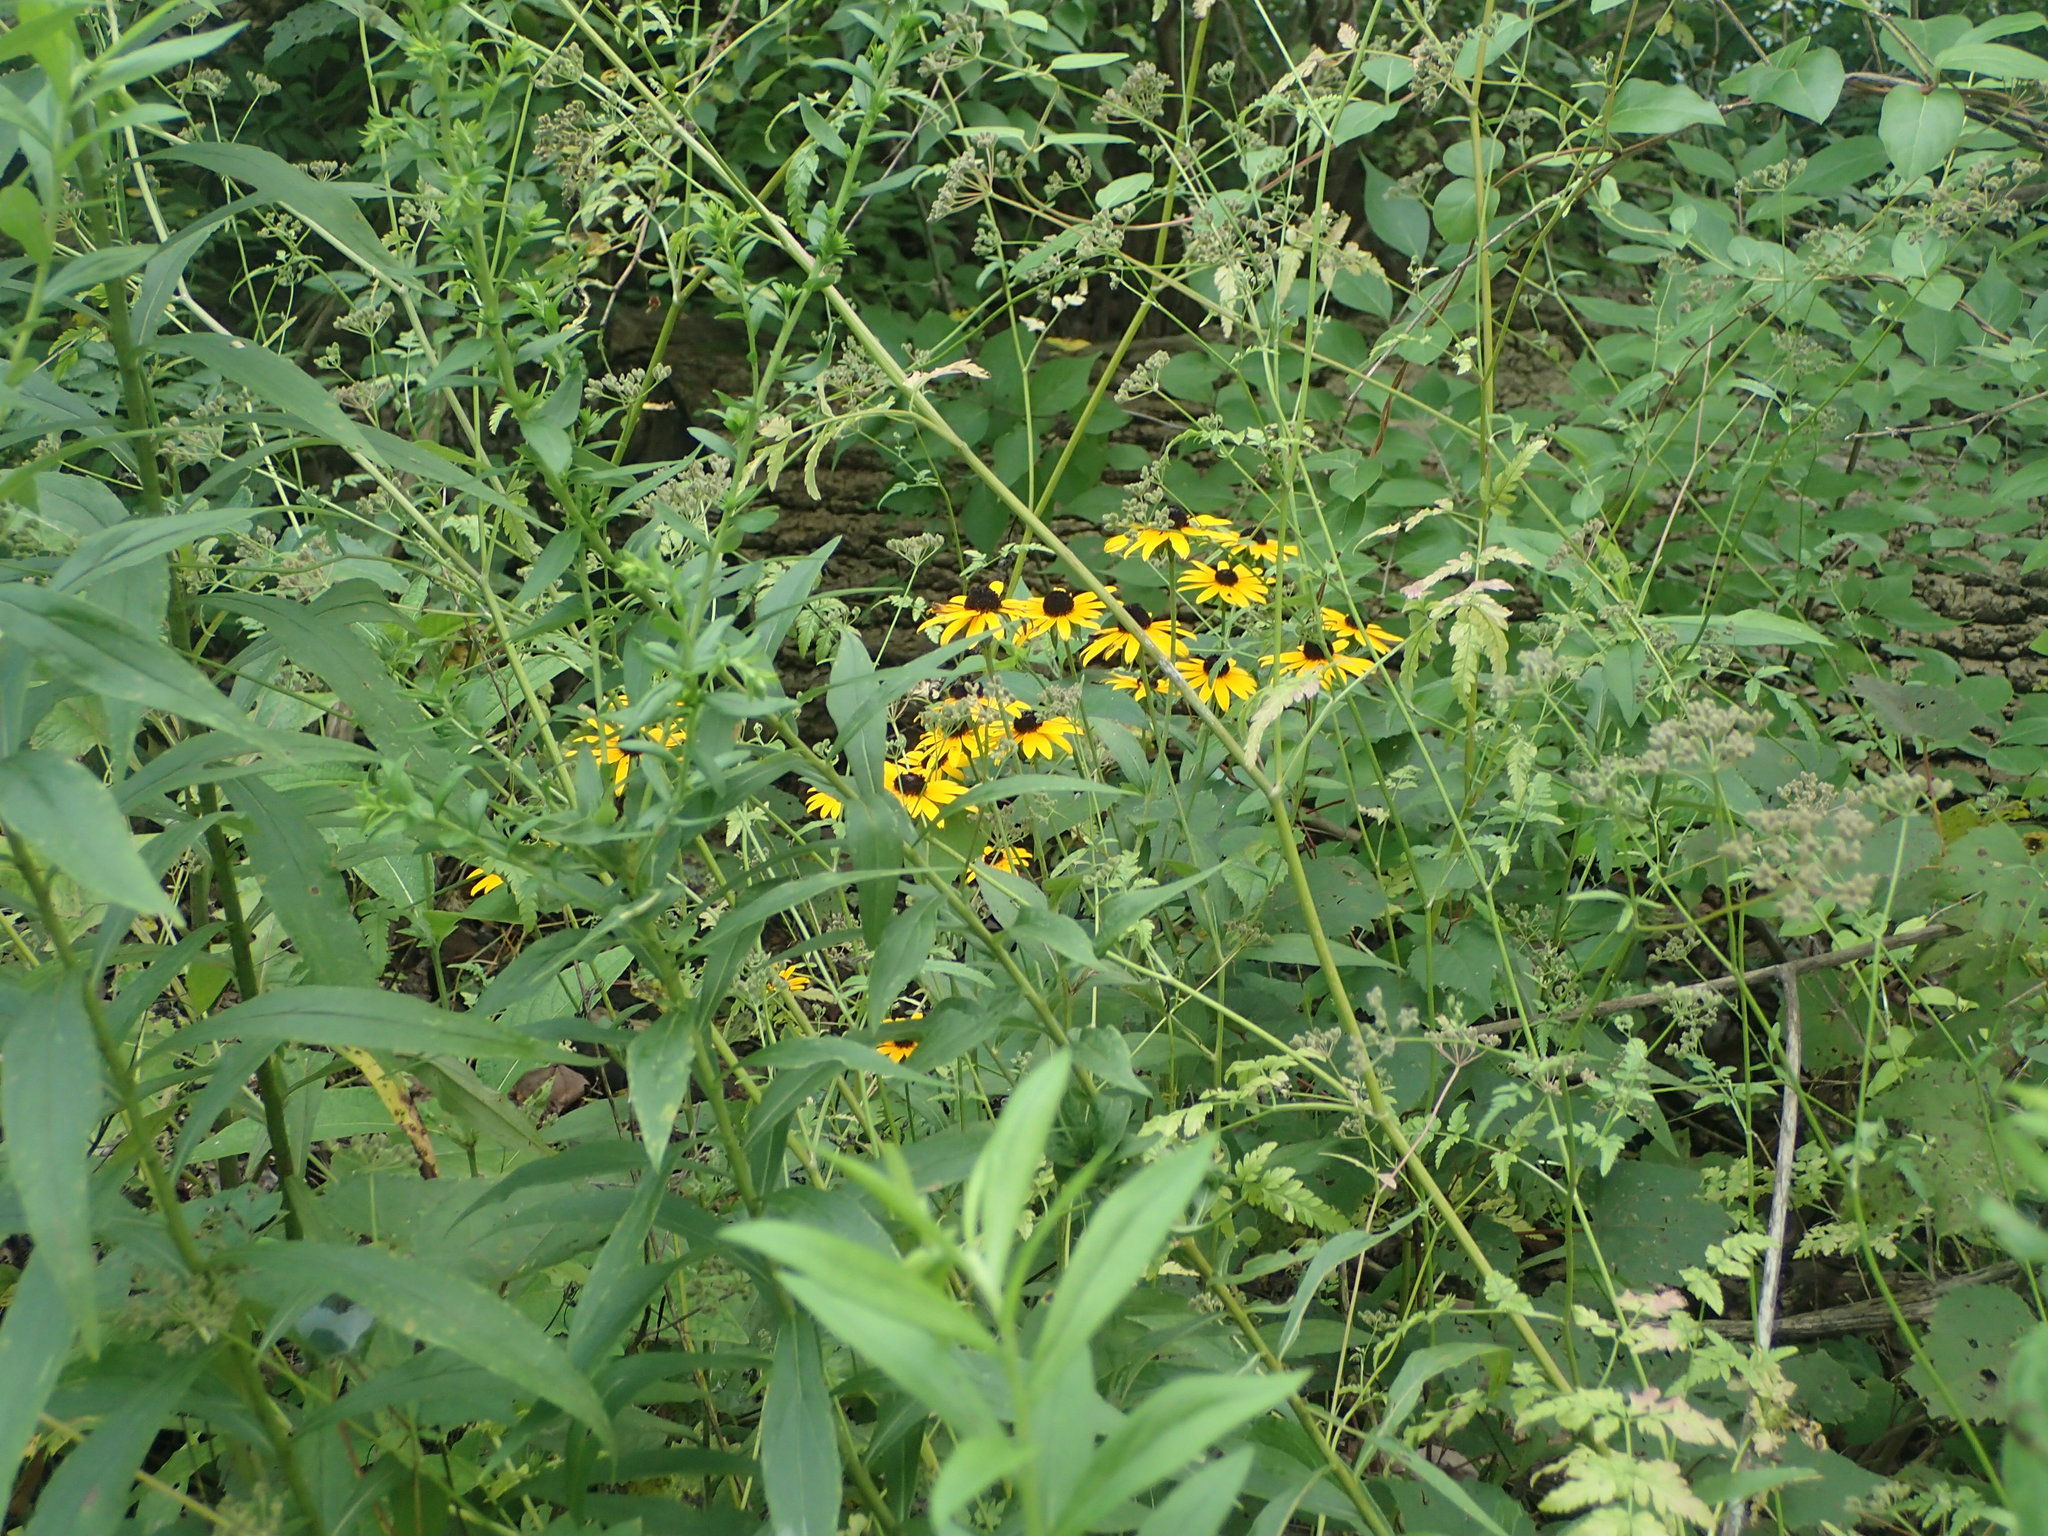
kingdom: Plantae
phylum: Tracheophyta
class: Magnoliopsida
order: Asterales
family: Asteraceae
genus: Rudbeckia
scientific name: Rudbeckia hirta
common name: Black-eyed-susan
